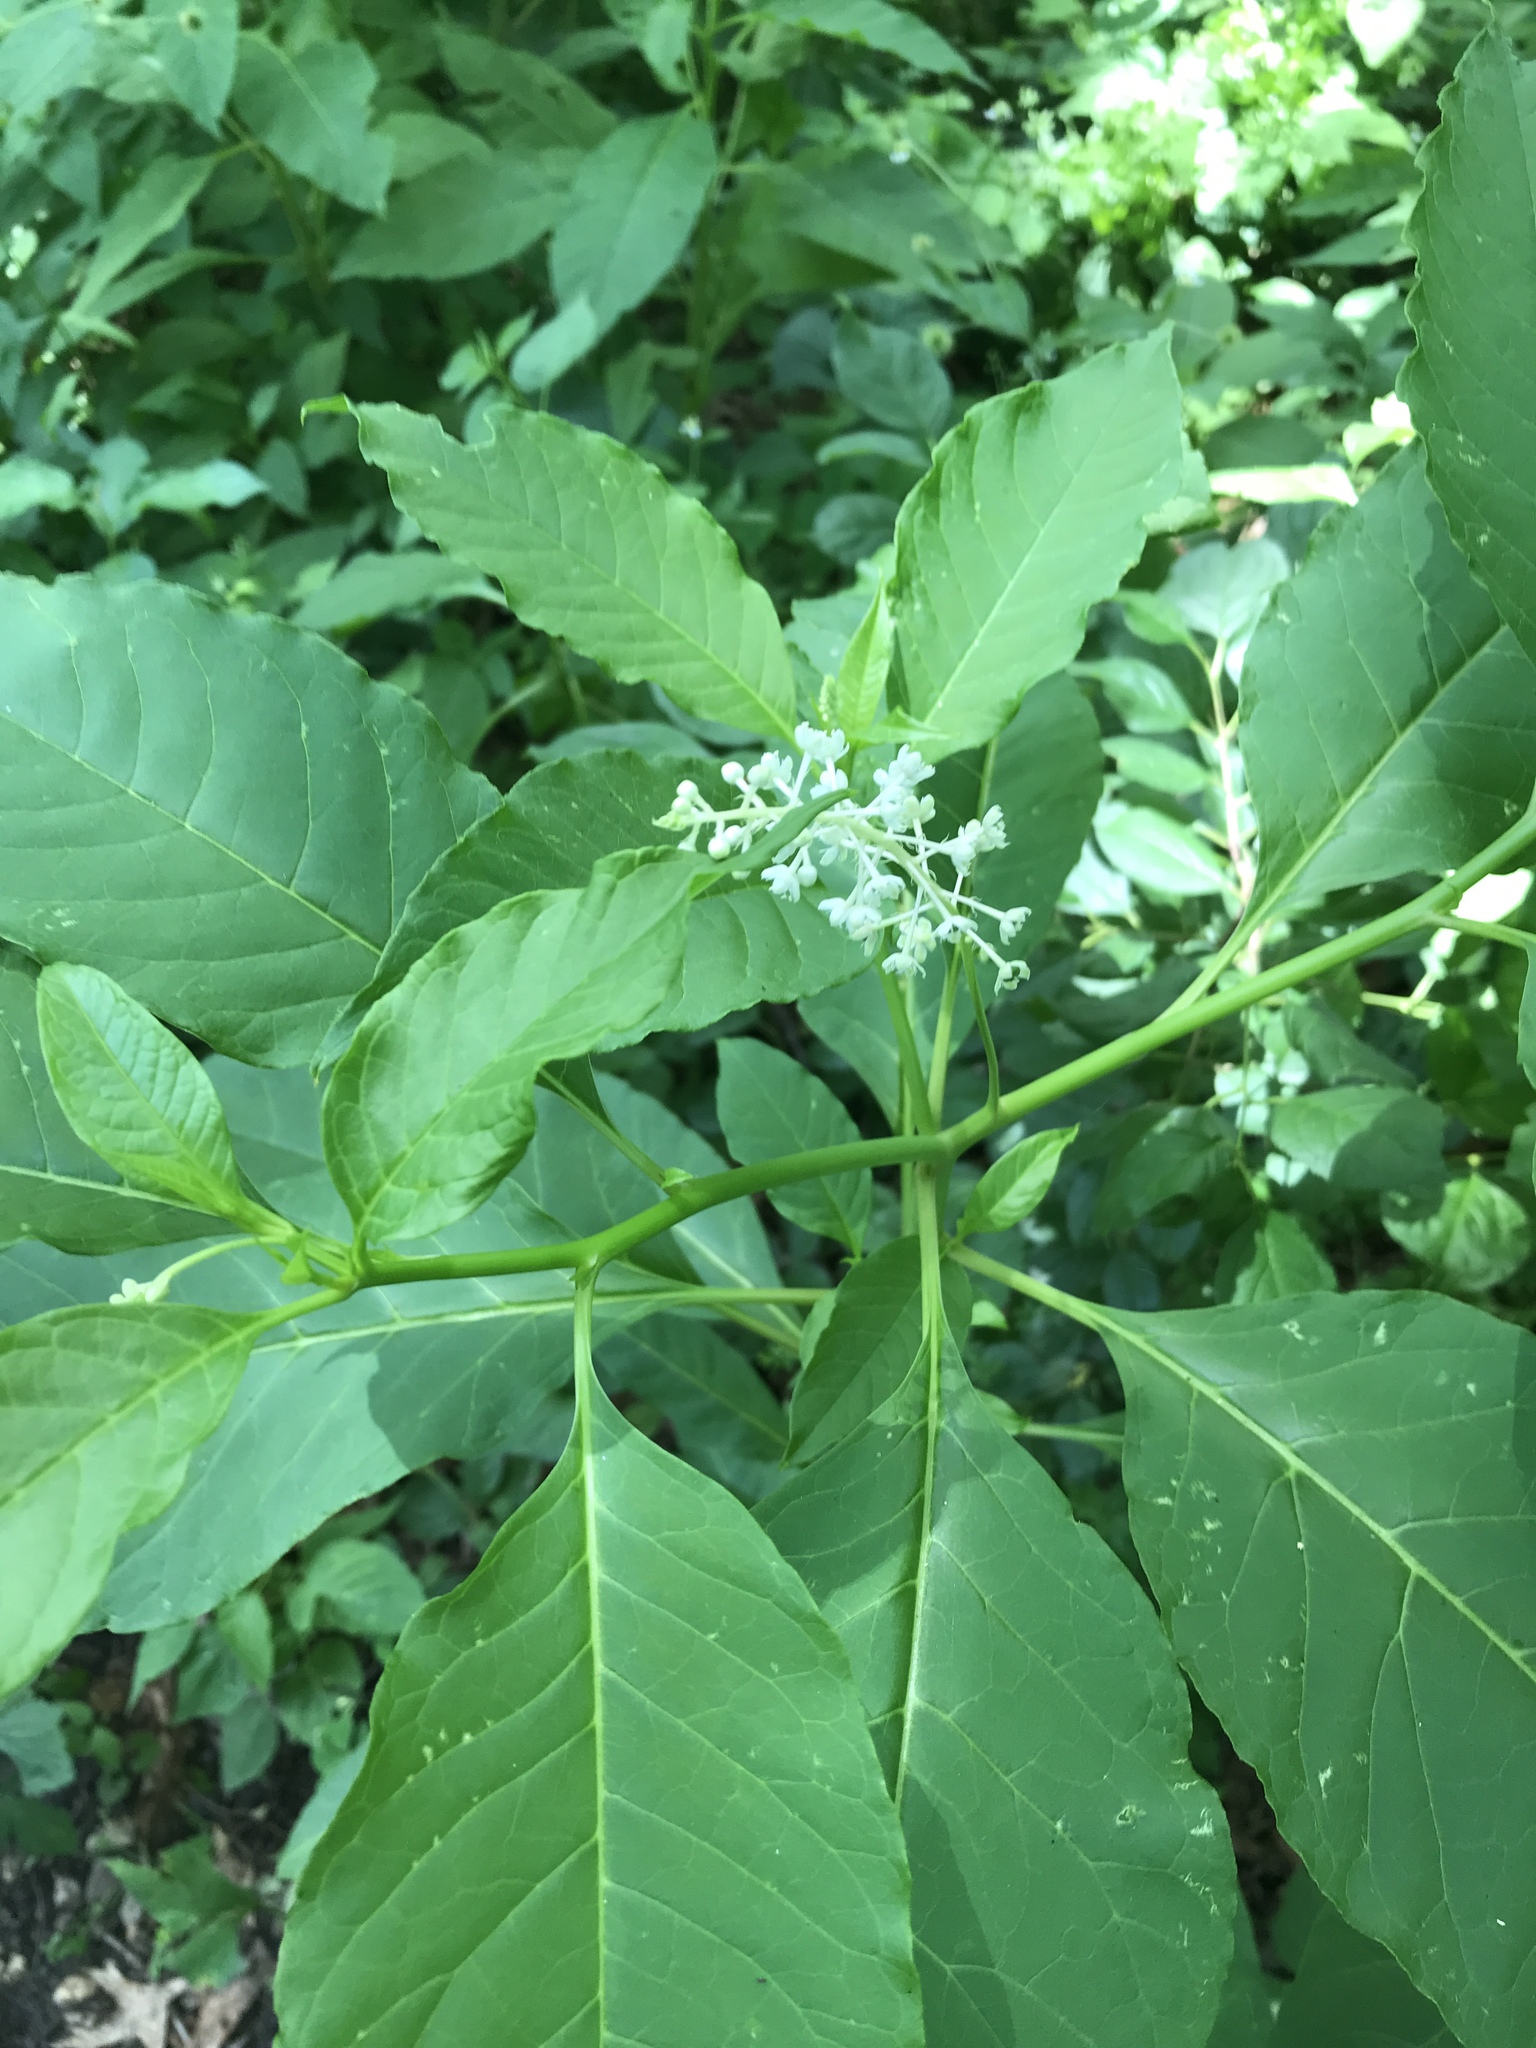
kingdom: Plantae
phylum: Tracheophyta
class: Magnoliopsida
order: Caryophyllales
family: Phytolaccaceae
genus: Phytolacca
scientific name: Phytolacca americana
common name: American pokeweed
